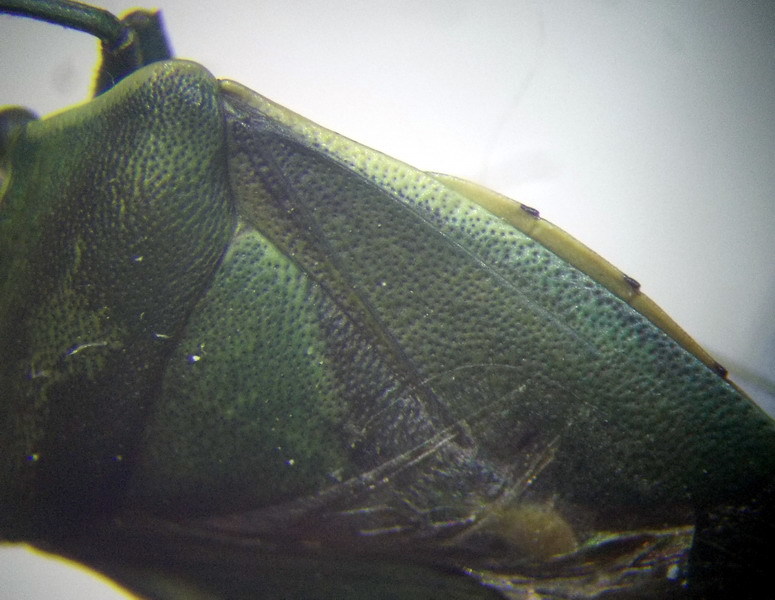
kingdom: Animalia
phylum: Arthropoda
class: Insecta
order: Hemiptera
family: Pentatomidae
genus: Brachynema
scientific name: Brachynema germarii
